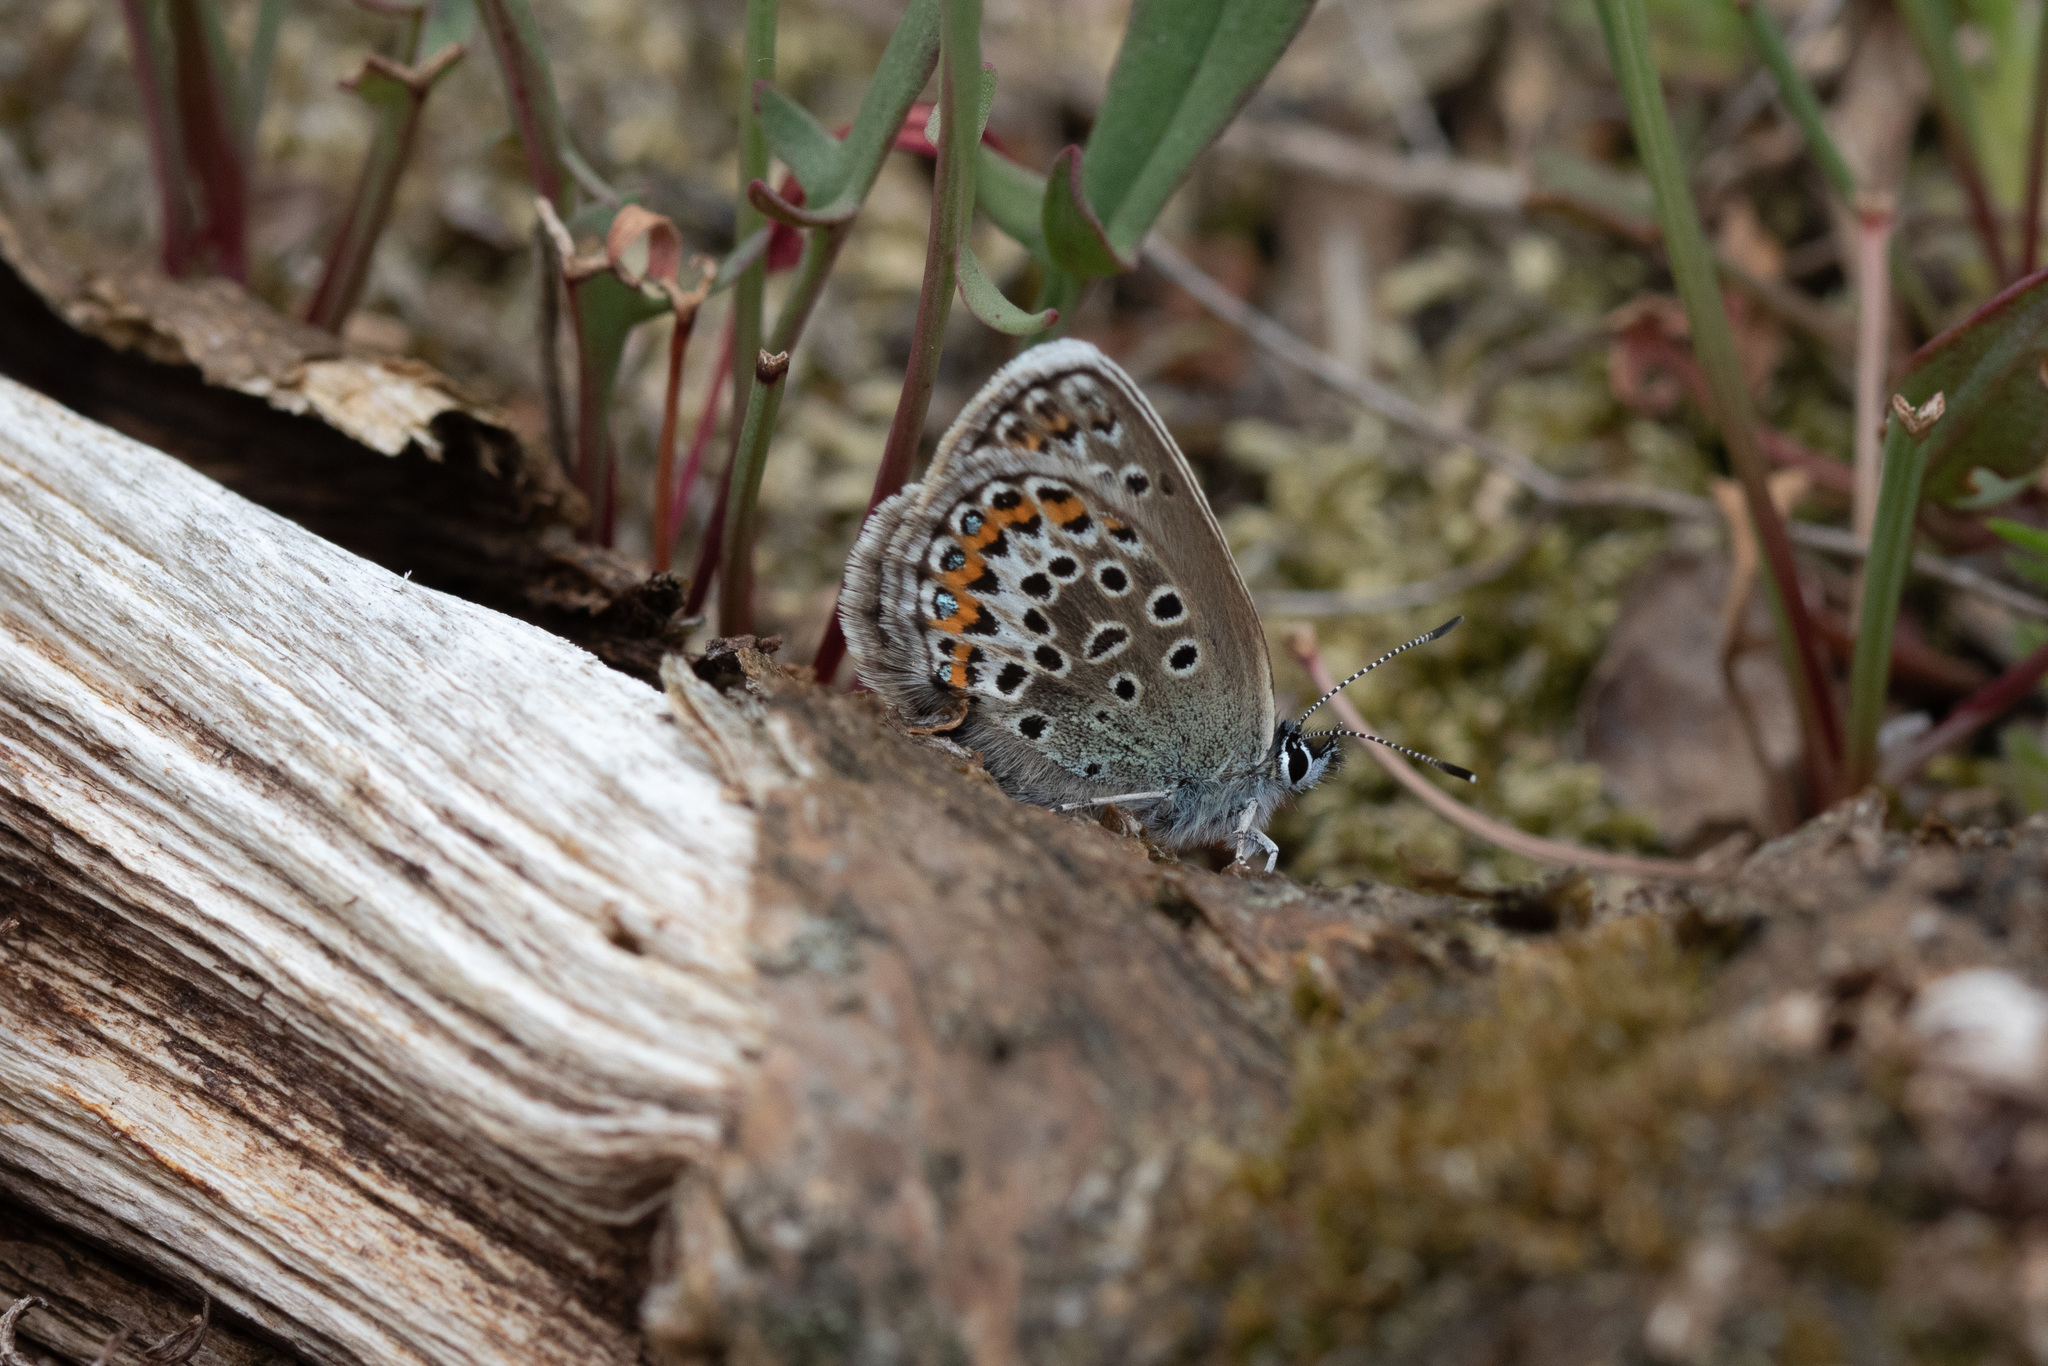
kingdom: Animalia
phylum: Arthropoda
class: Insecta
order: Lepidoptera
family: Lycaenidae
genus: Plebejus
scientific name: Plebejus argus
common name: Silver-studded blue
